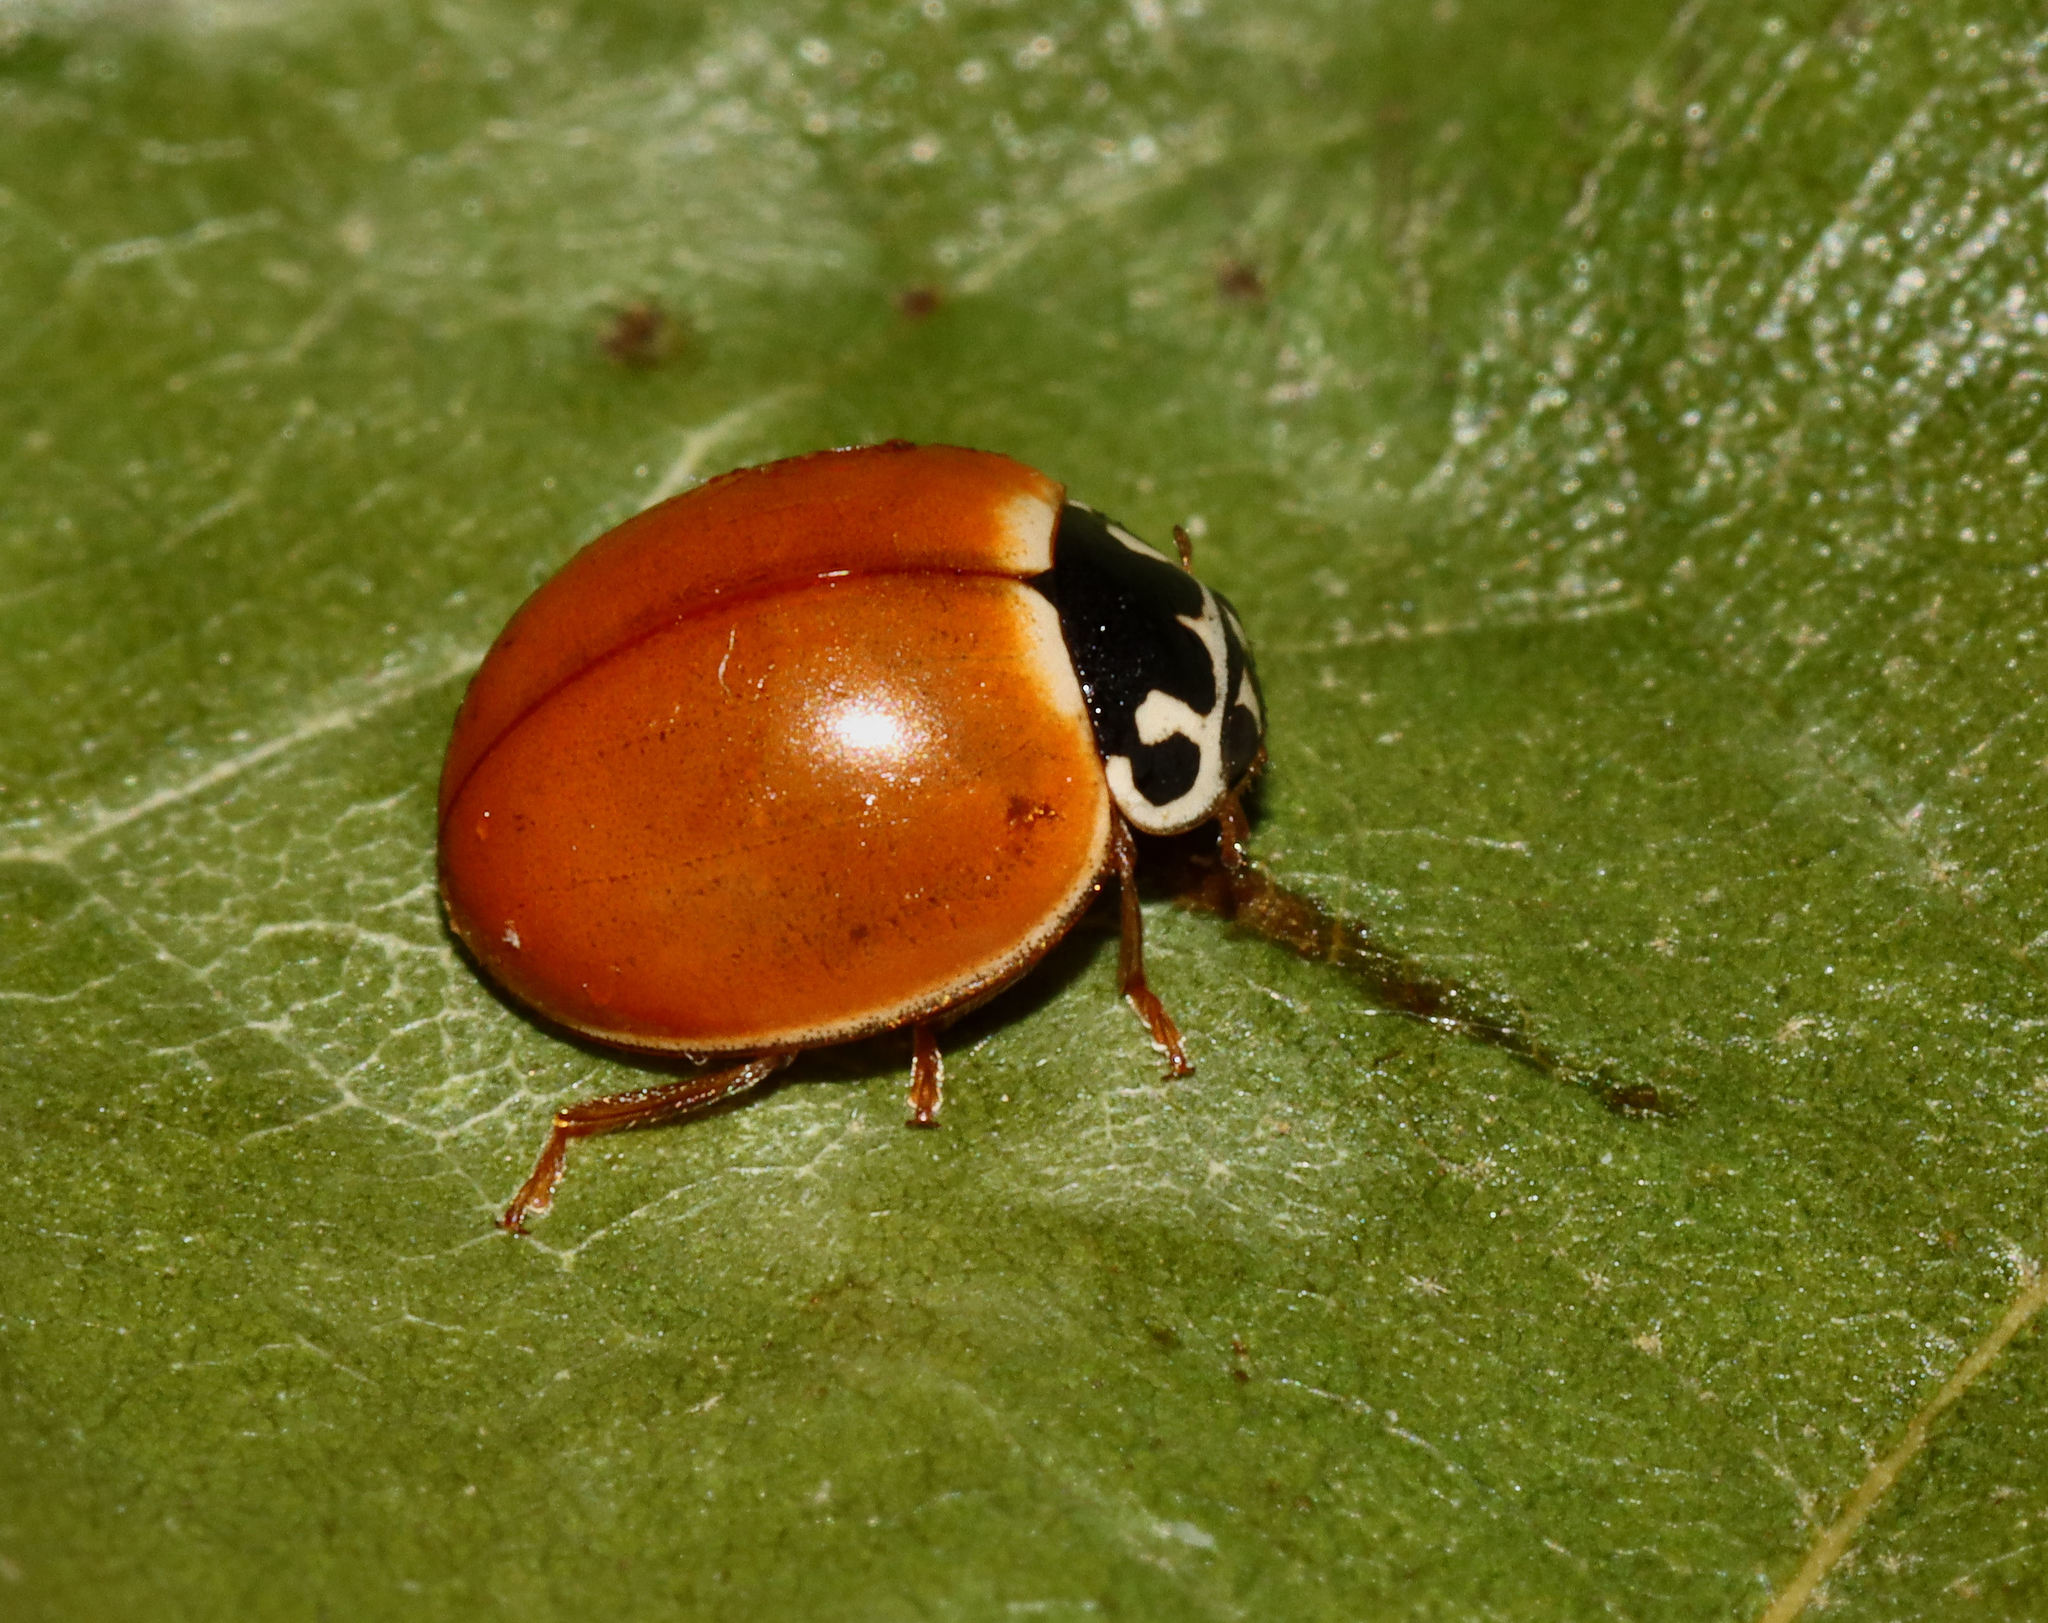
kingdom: Animalia
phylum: Arthropoda
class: Insecta
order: Coleoptera
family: Coccinellidae
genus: Cycloneda
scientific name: Cycloneda munda
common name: Polished lady beetle
